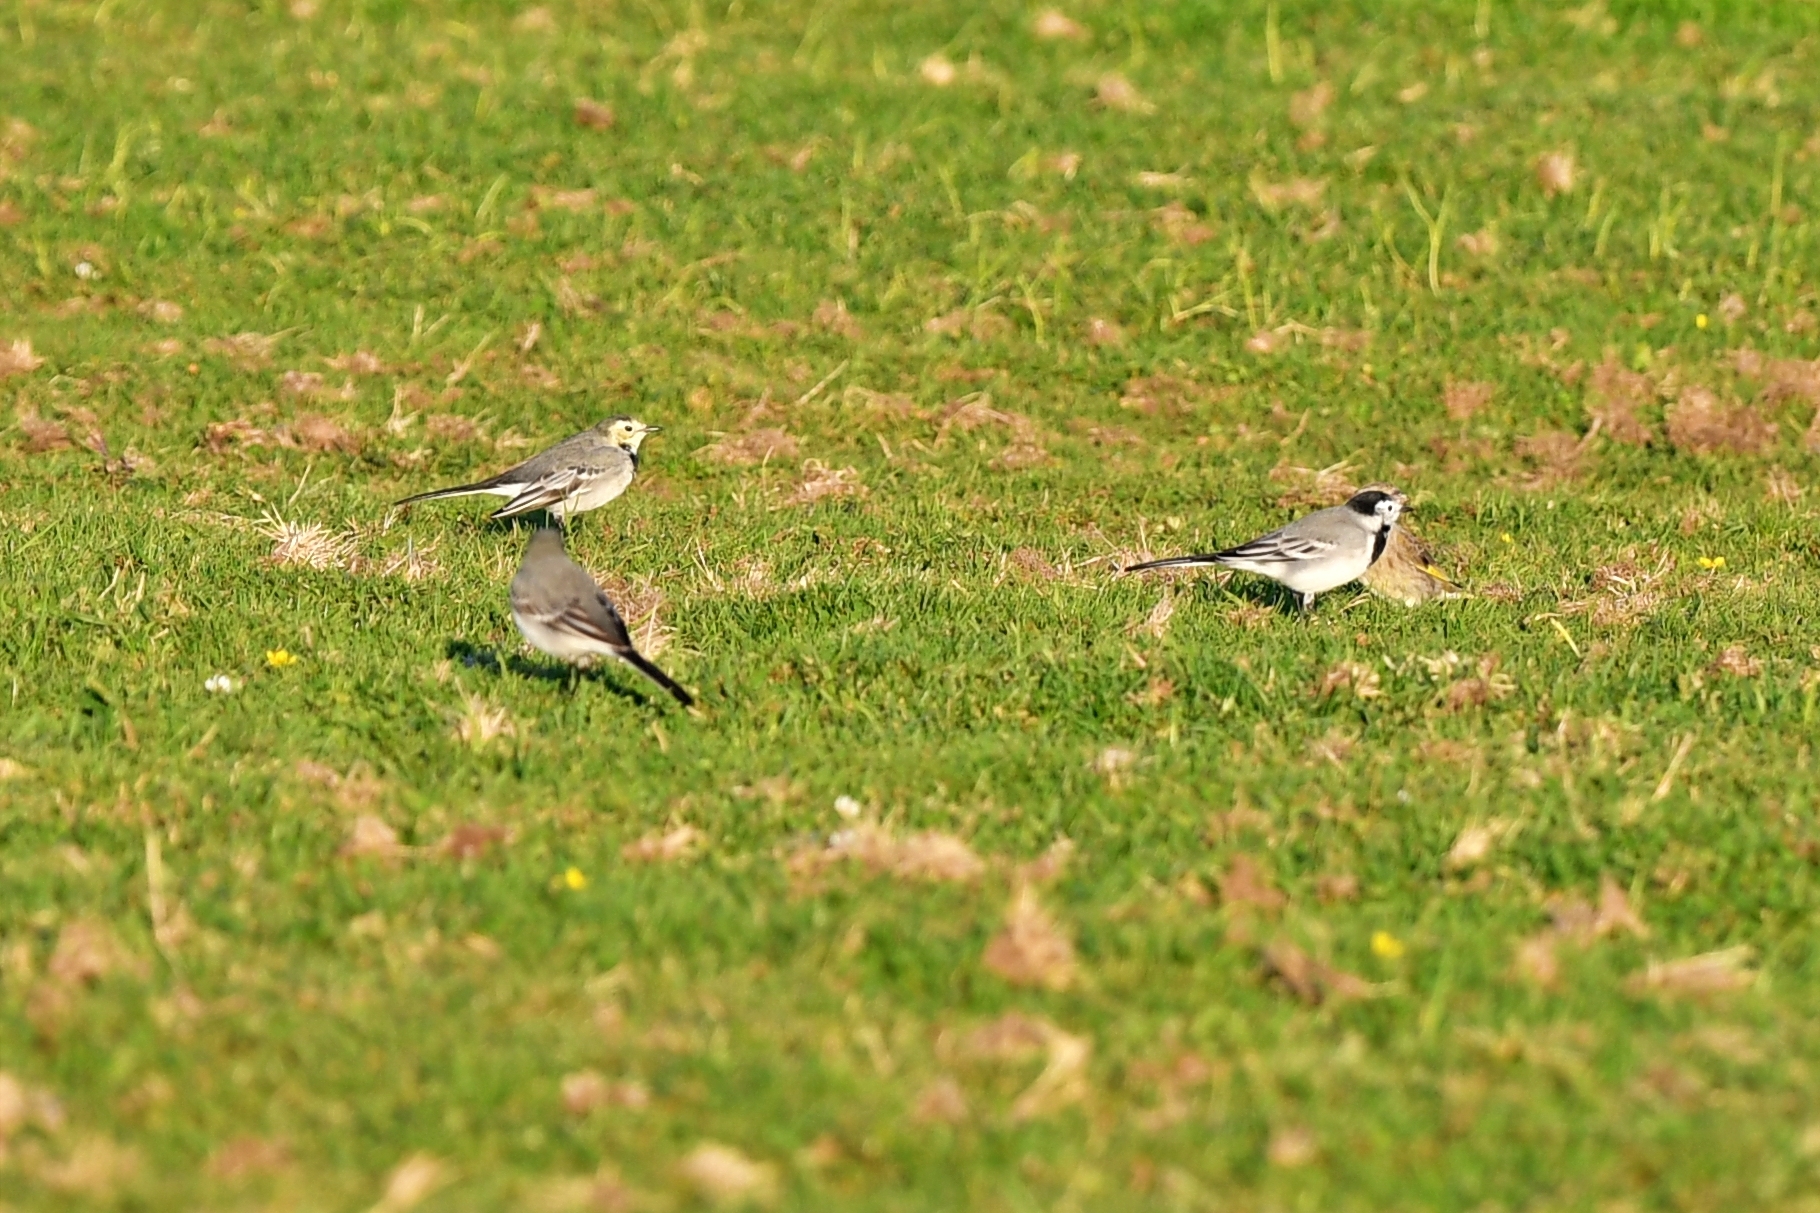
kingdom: Animalia
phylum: Chordata
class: Aves
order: Passeriformes
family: Motacillidae
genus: Motacilla
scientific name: Motacilla alba
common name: White wagtail
